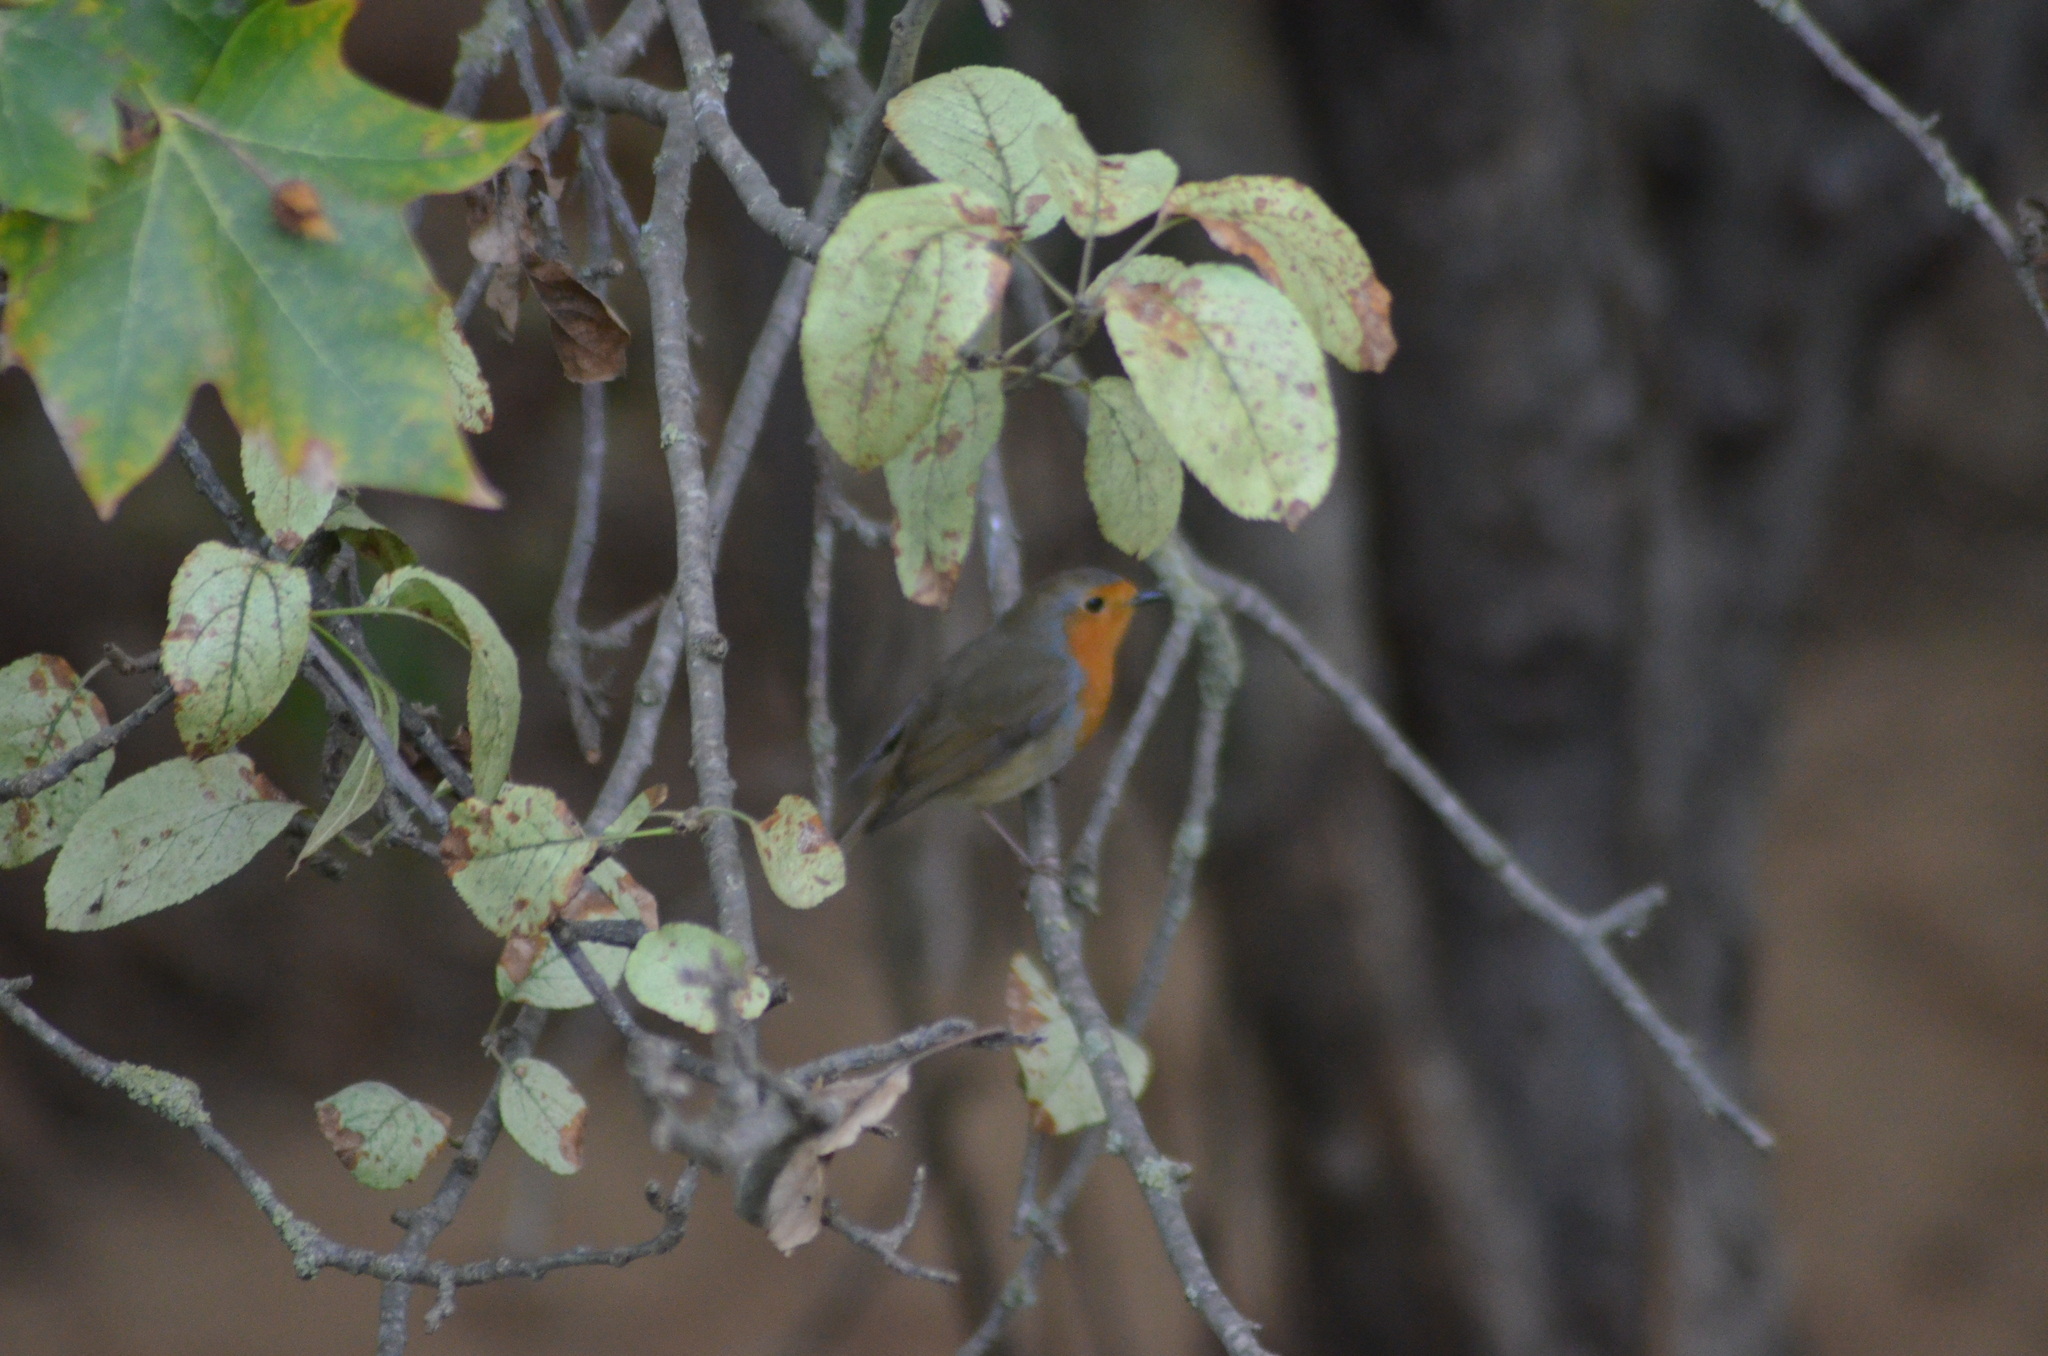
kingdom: Animalia
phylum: Chordata
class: Aves
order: Passeriformes
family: Muscicapidae
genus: Erithacus
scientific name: Erithacus rubecula
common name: European robin
